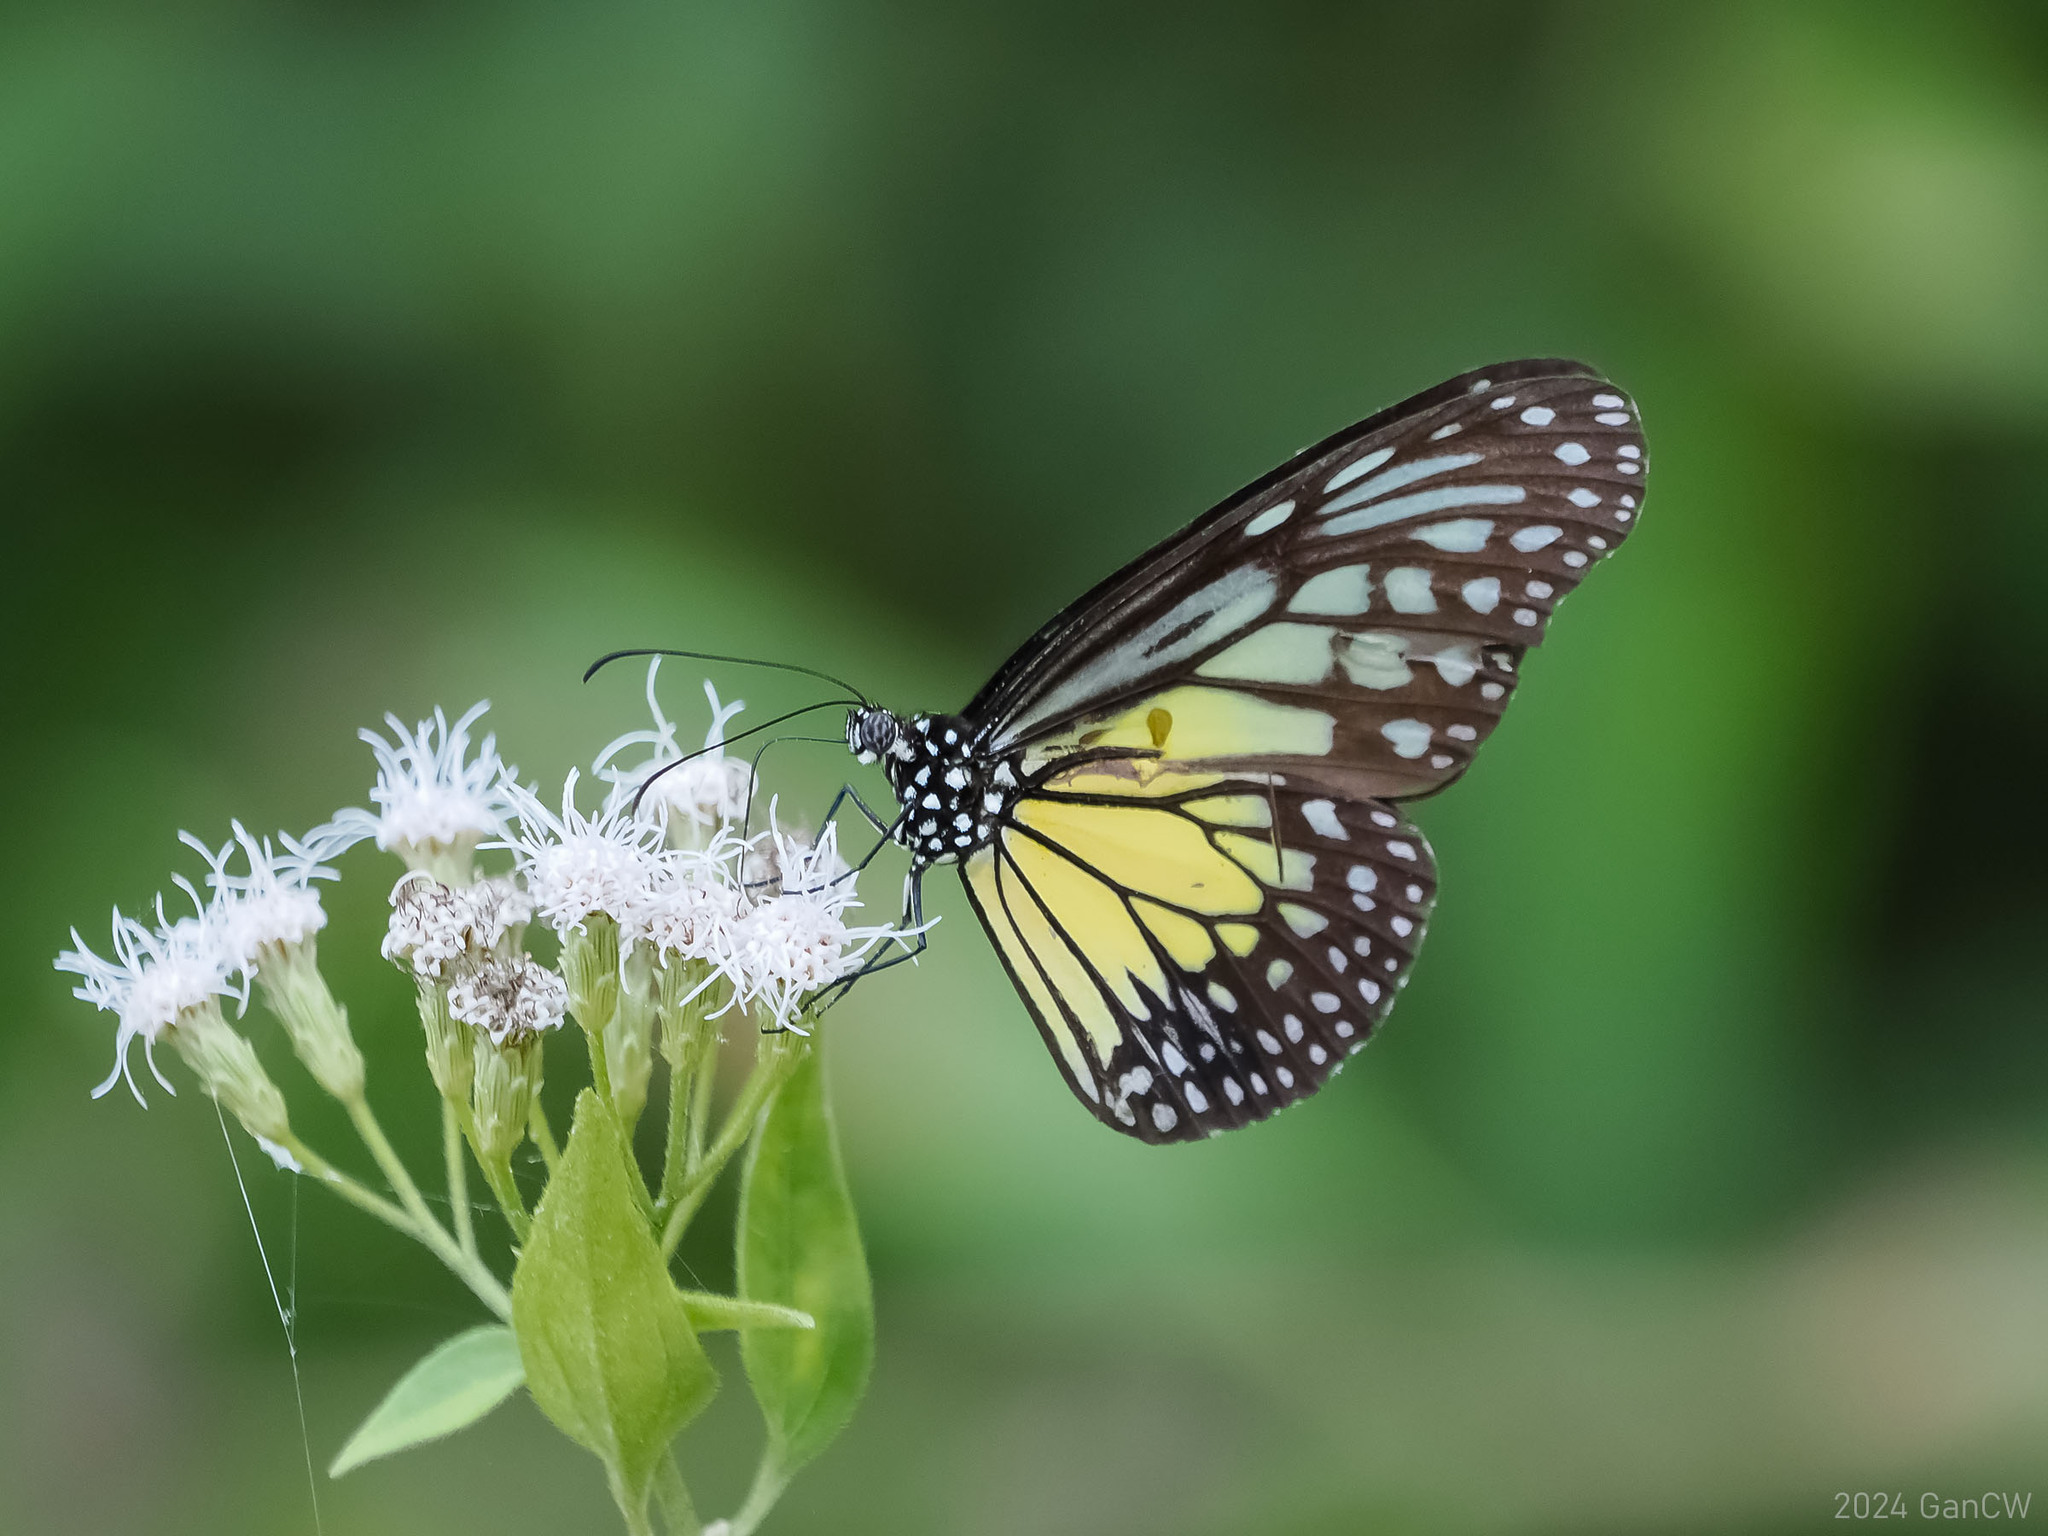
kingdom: Animalia
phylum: Arthropoda
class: Insecta
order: Lepidoptera
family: Nymphalidae
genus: Parantica
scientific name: Parantica aspasia
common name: Yellow glassy tiger
